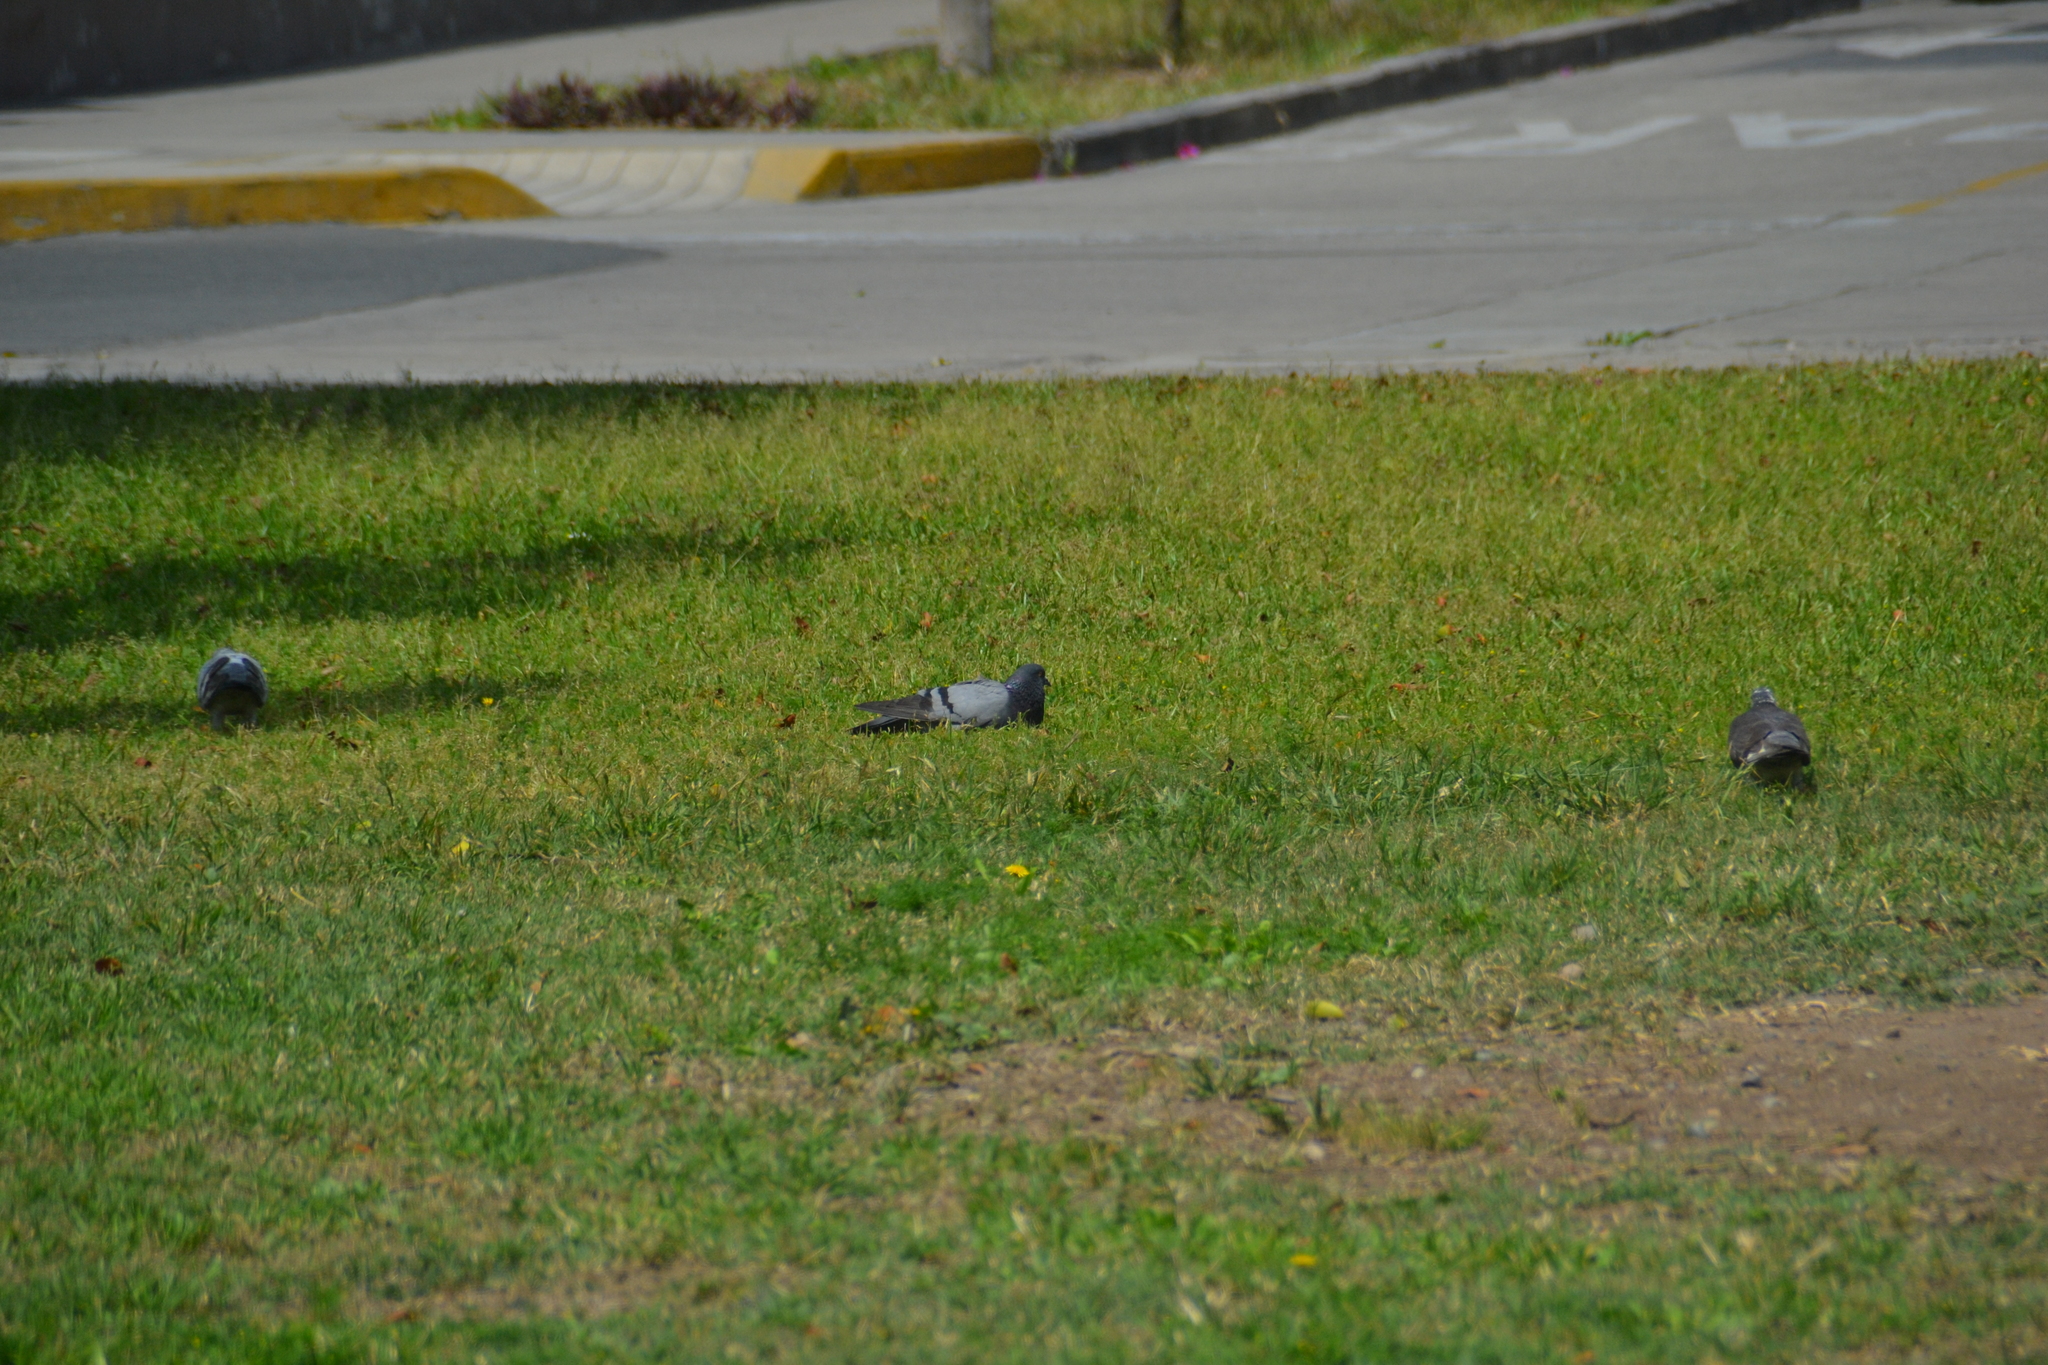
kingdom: Animalia
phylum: Chordata
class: Aves
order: Columbiformes
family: Columbidae
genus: Columba
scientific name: Columba livia
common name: Rock pigeon
